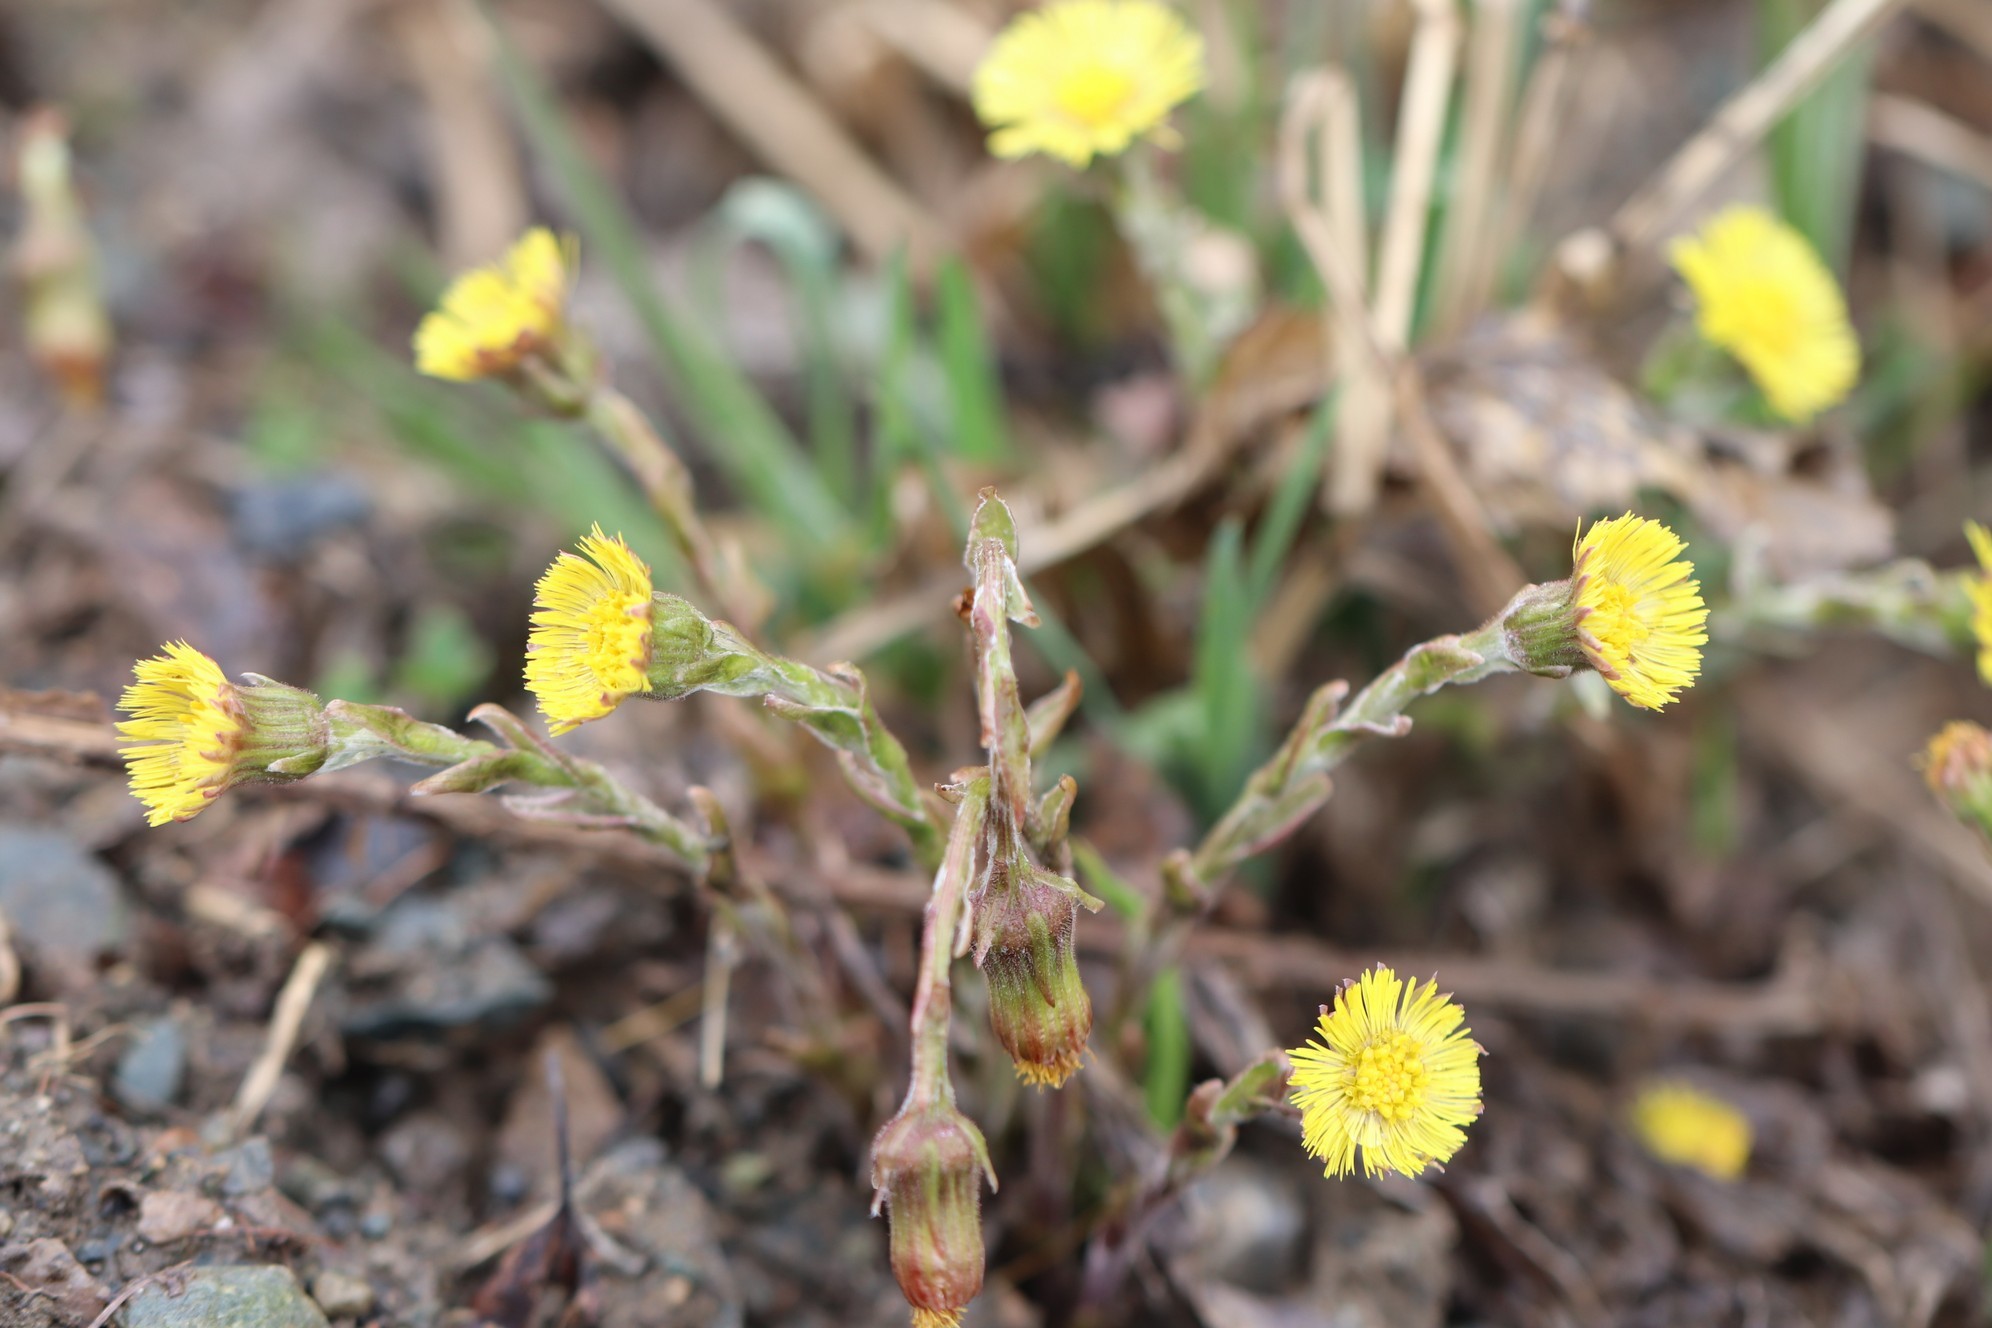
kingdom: Plantae
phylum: Tracheophyta
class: Magnoliopsida
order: Asterales
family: Asteraceae
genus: Tussilago
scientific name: Tussilago farfara
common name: Coltsfoot
